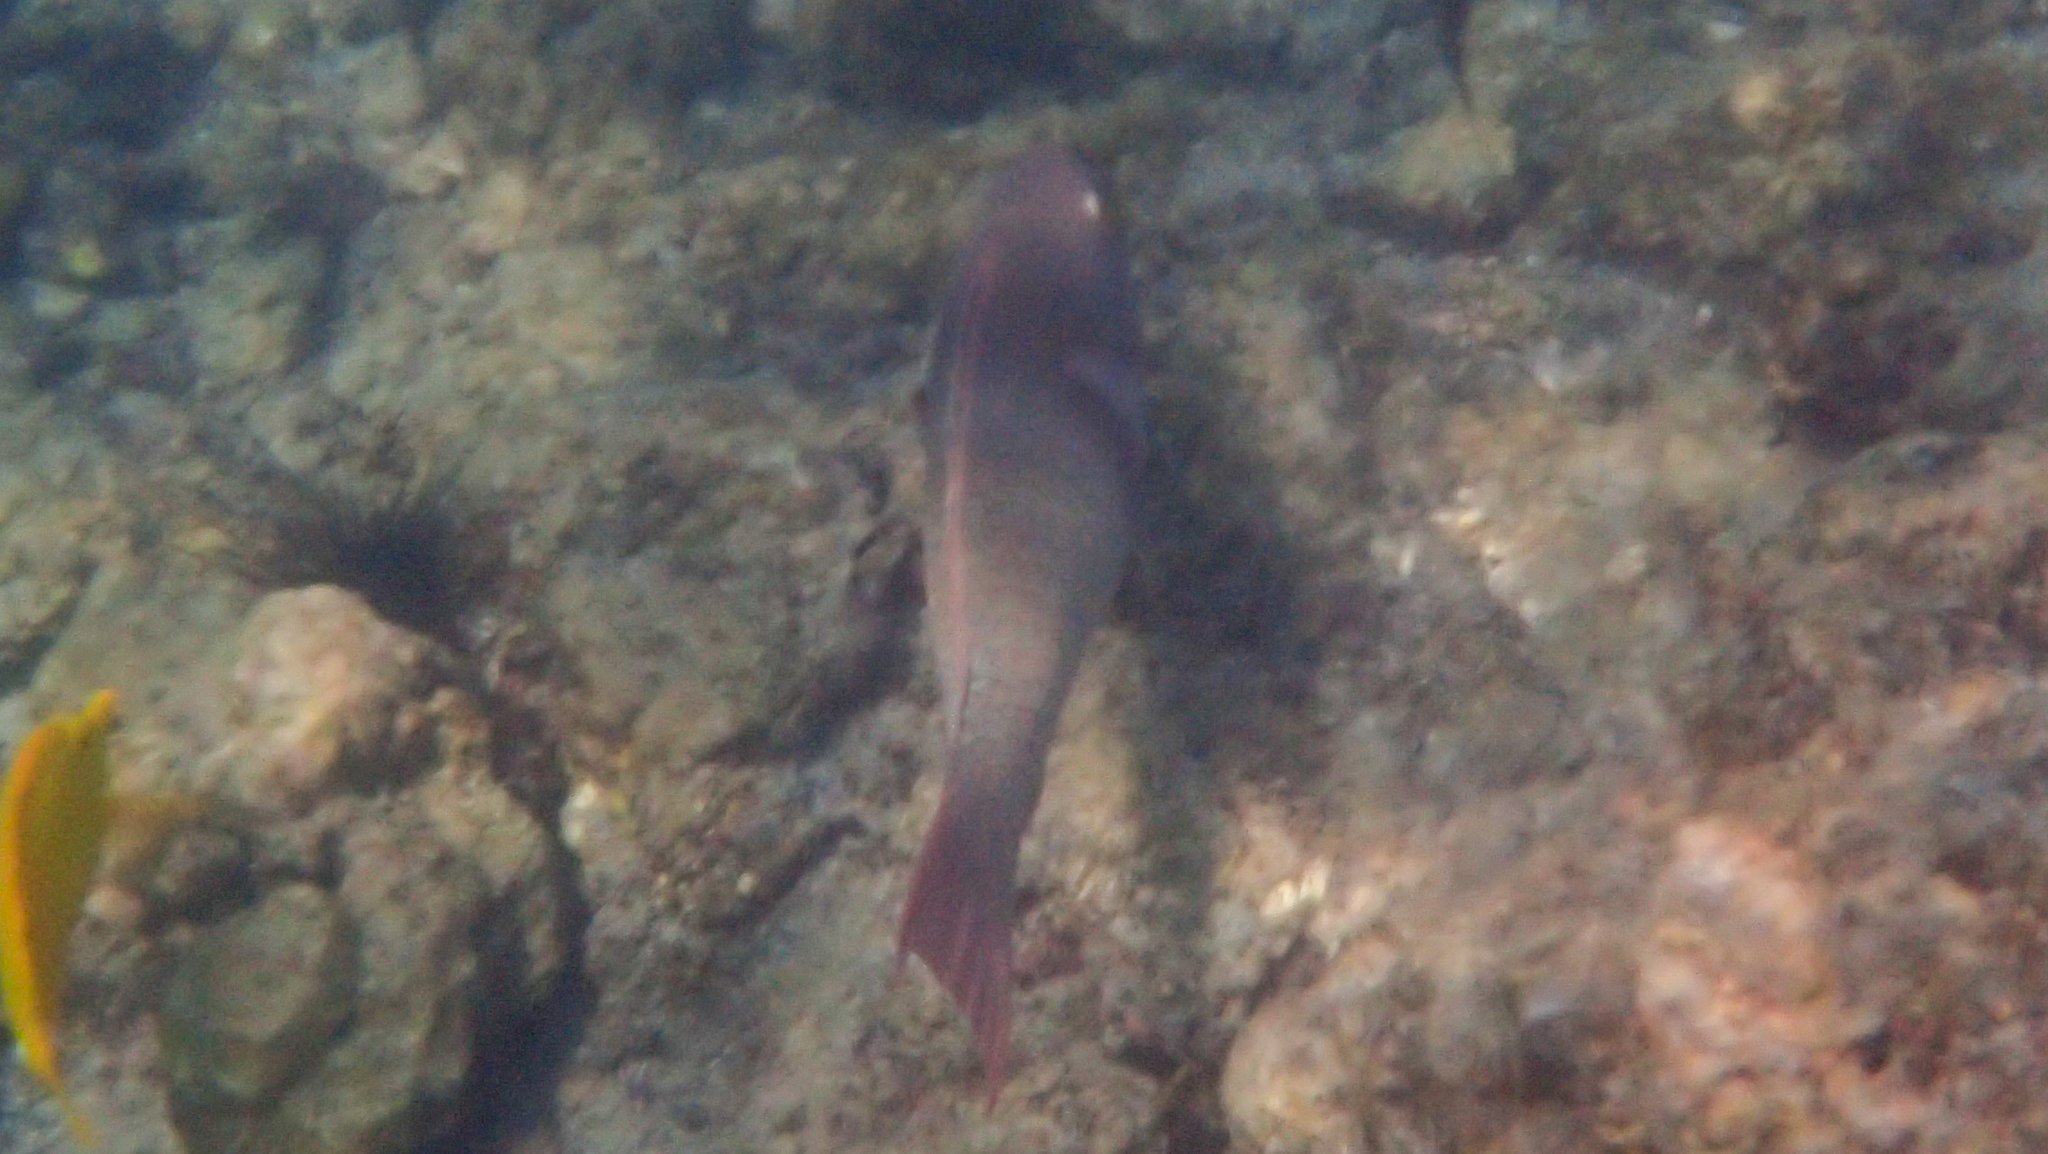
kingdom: Animalia
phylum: Chordata
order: Perciformes
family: Scaridae
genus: Scarus
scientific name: Scarus rubroviolaceus
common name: Ember parrotfish
